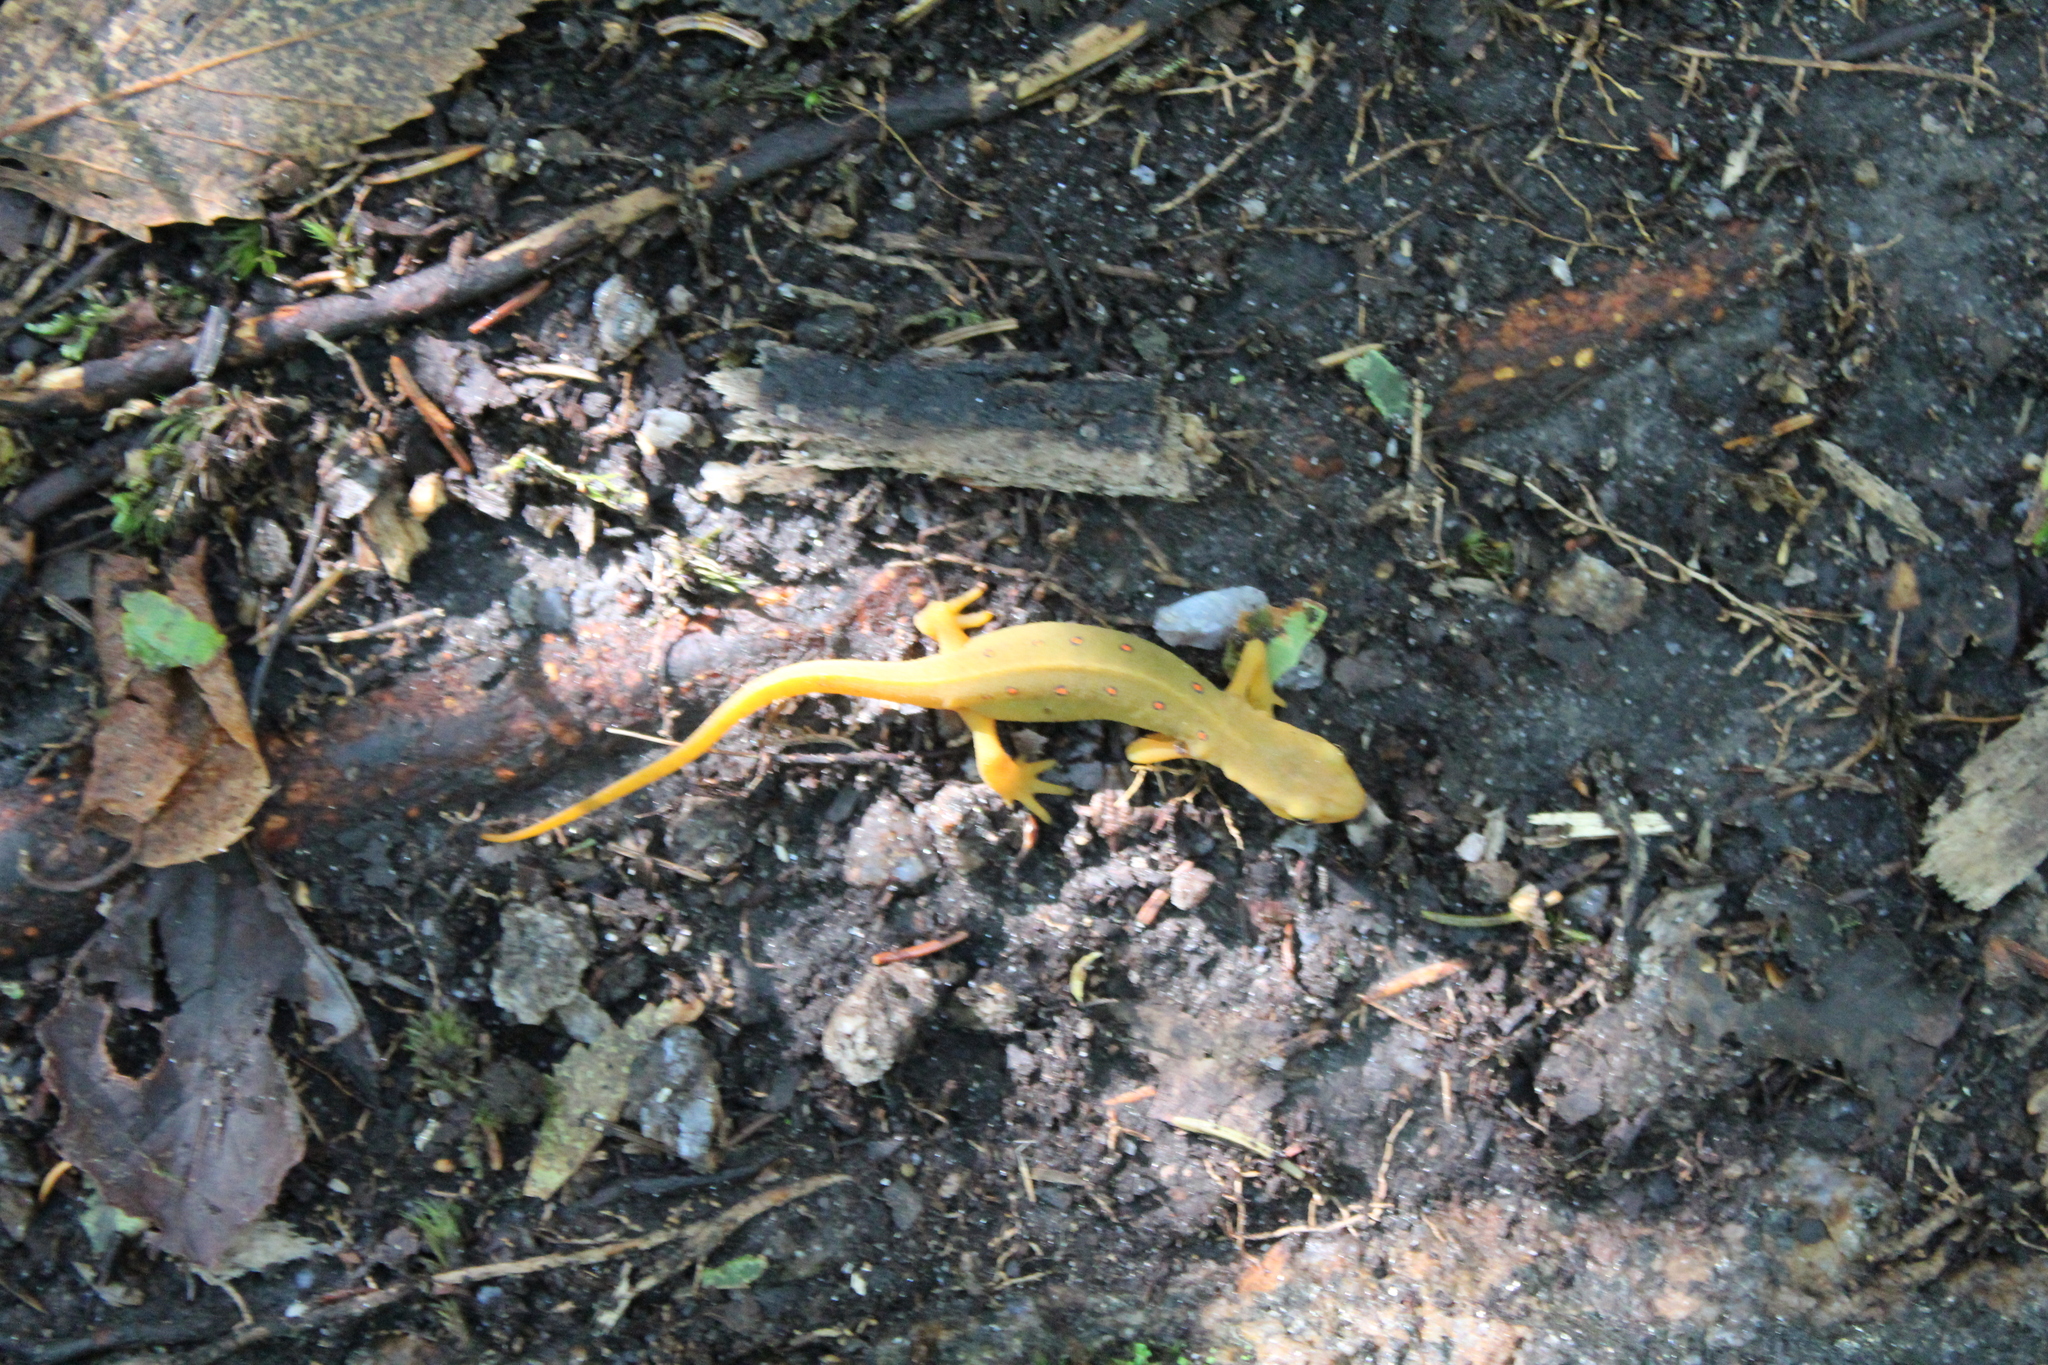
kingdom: Animalia
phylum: Chordata
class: Amphibia
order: Caudata
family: Salamandridae
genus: Notophthalmus
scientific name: Notophthalmus viridescens
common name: Eastern newt
